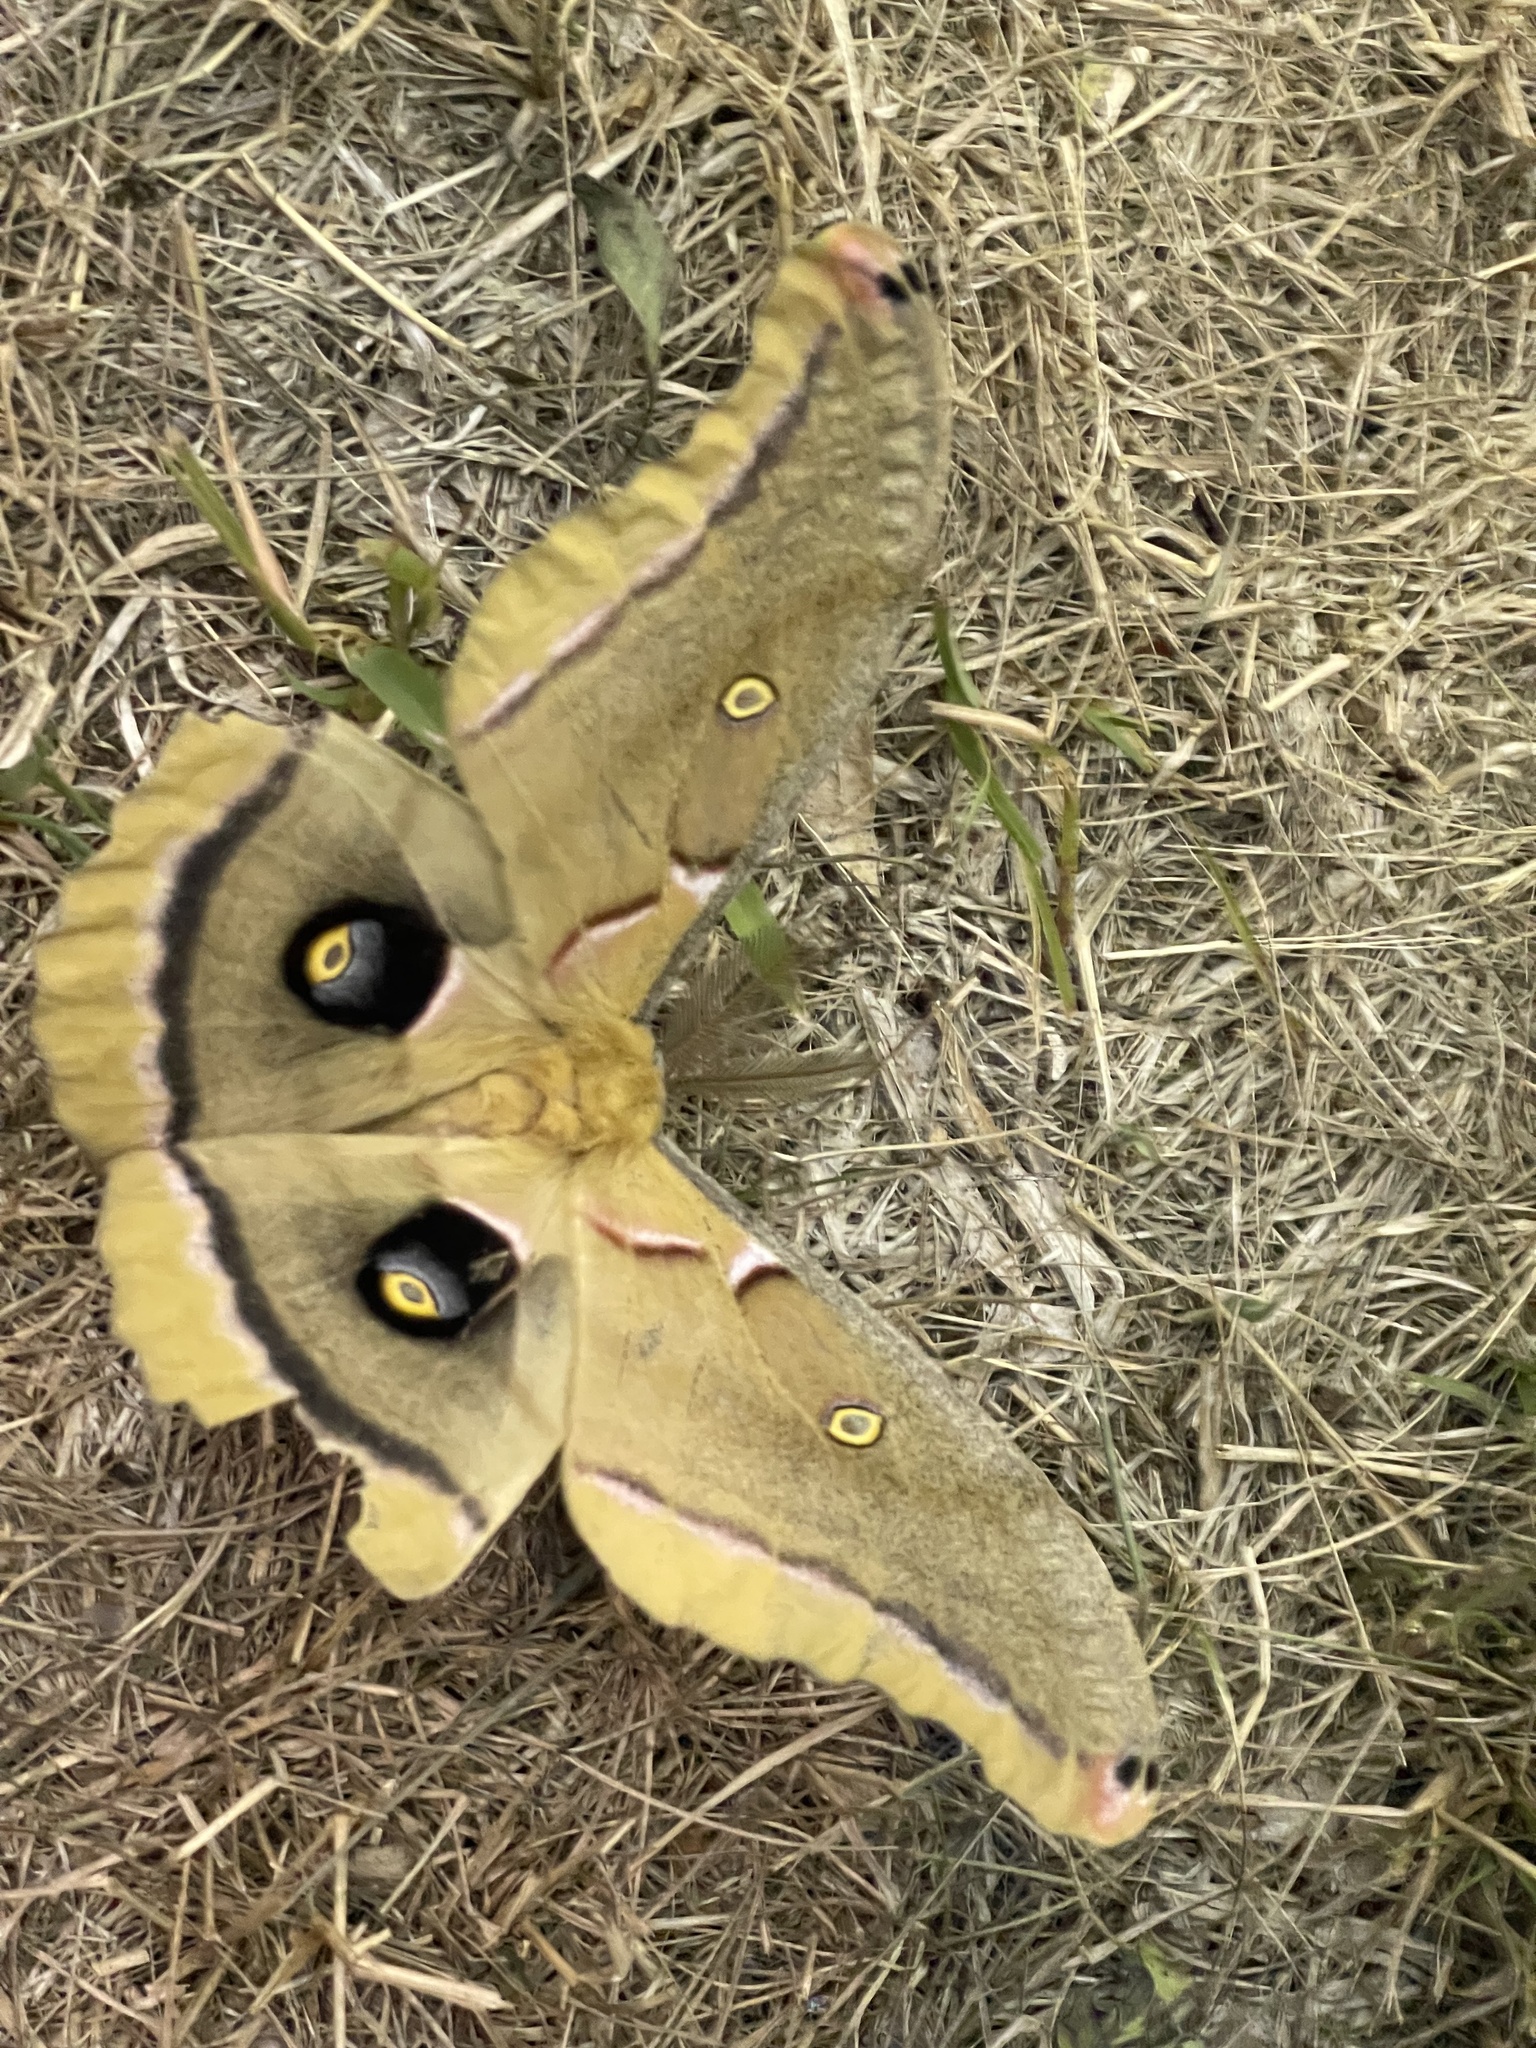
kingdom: Animalia
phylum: Arthropoda
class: Insecta
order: Lepidoptera
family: Saturniidae
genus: Antheraea
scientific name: Antheraea polyphemus
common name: Polyphemus moth
